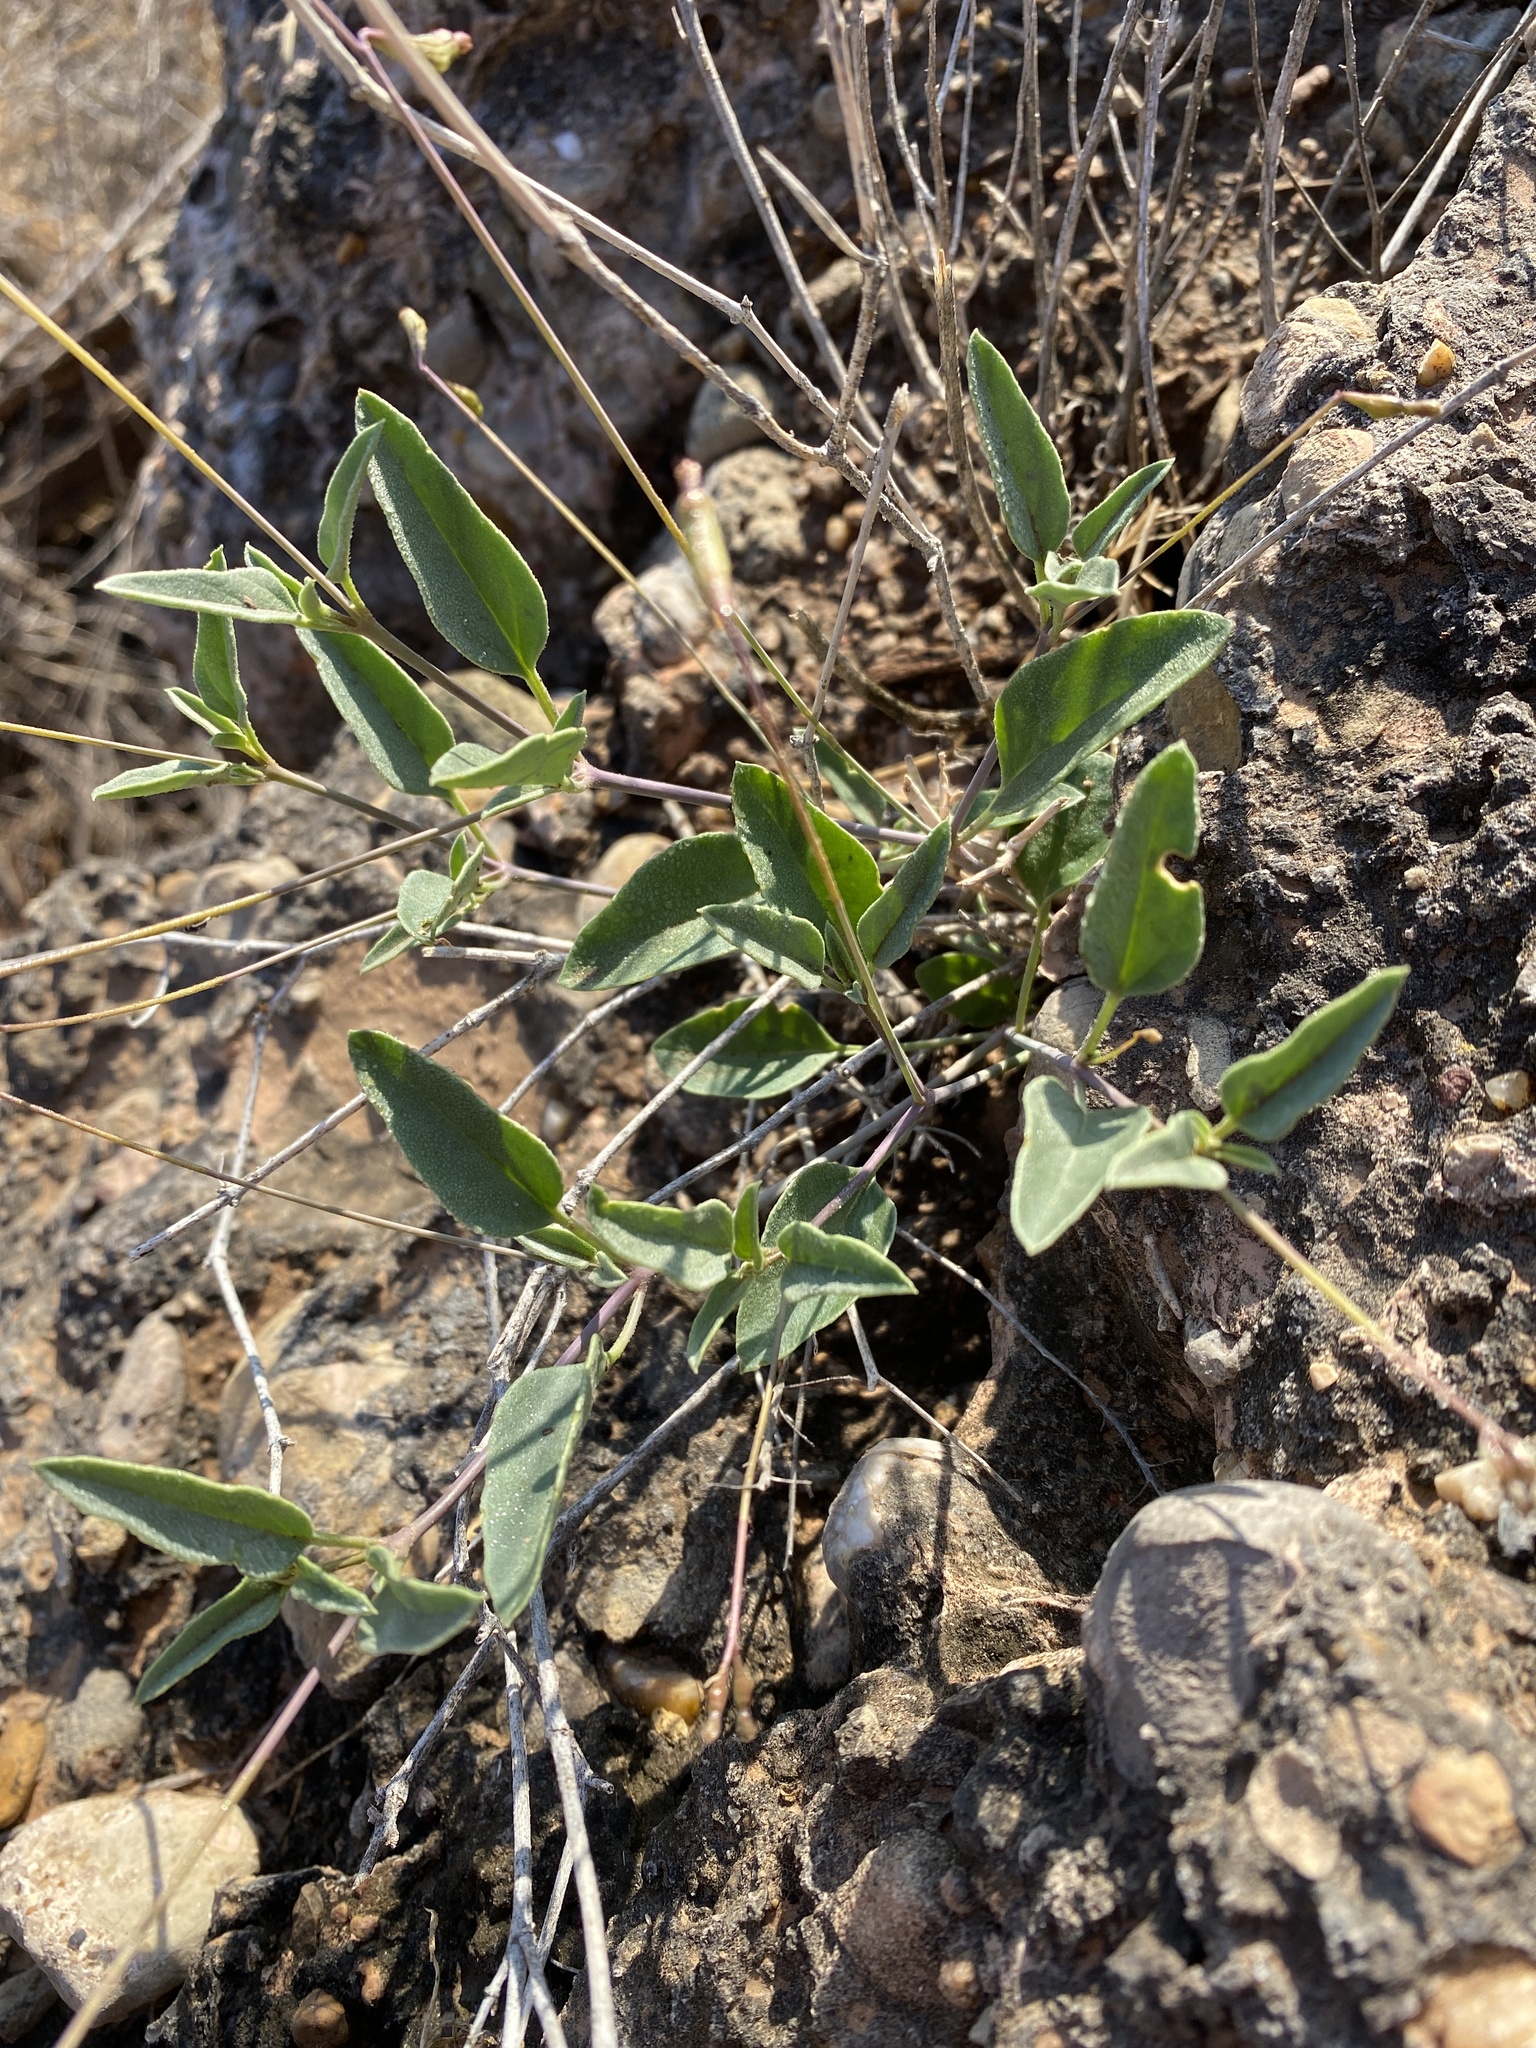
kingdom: Plantae
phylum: Tracheophyta
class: Magnoliopsida
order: Caryophyllales
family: Nyctaginaceae
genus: Cyphomeris
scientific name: Cyphomeris gypsophiloides
